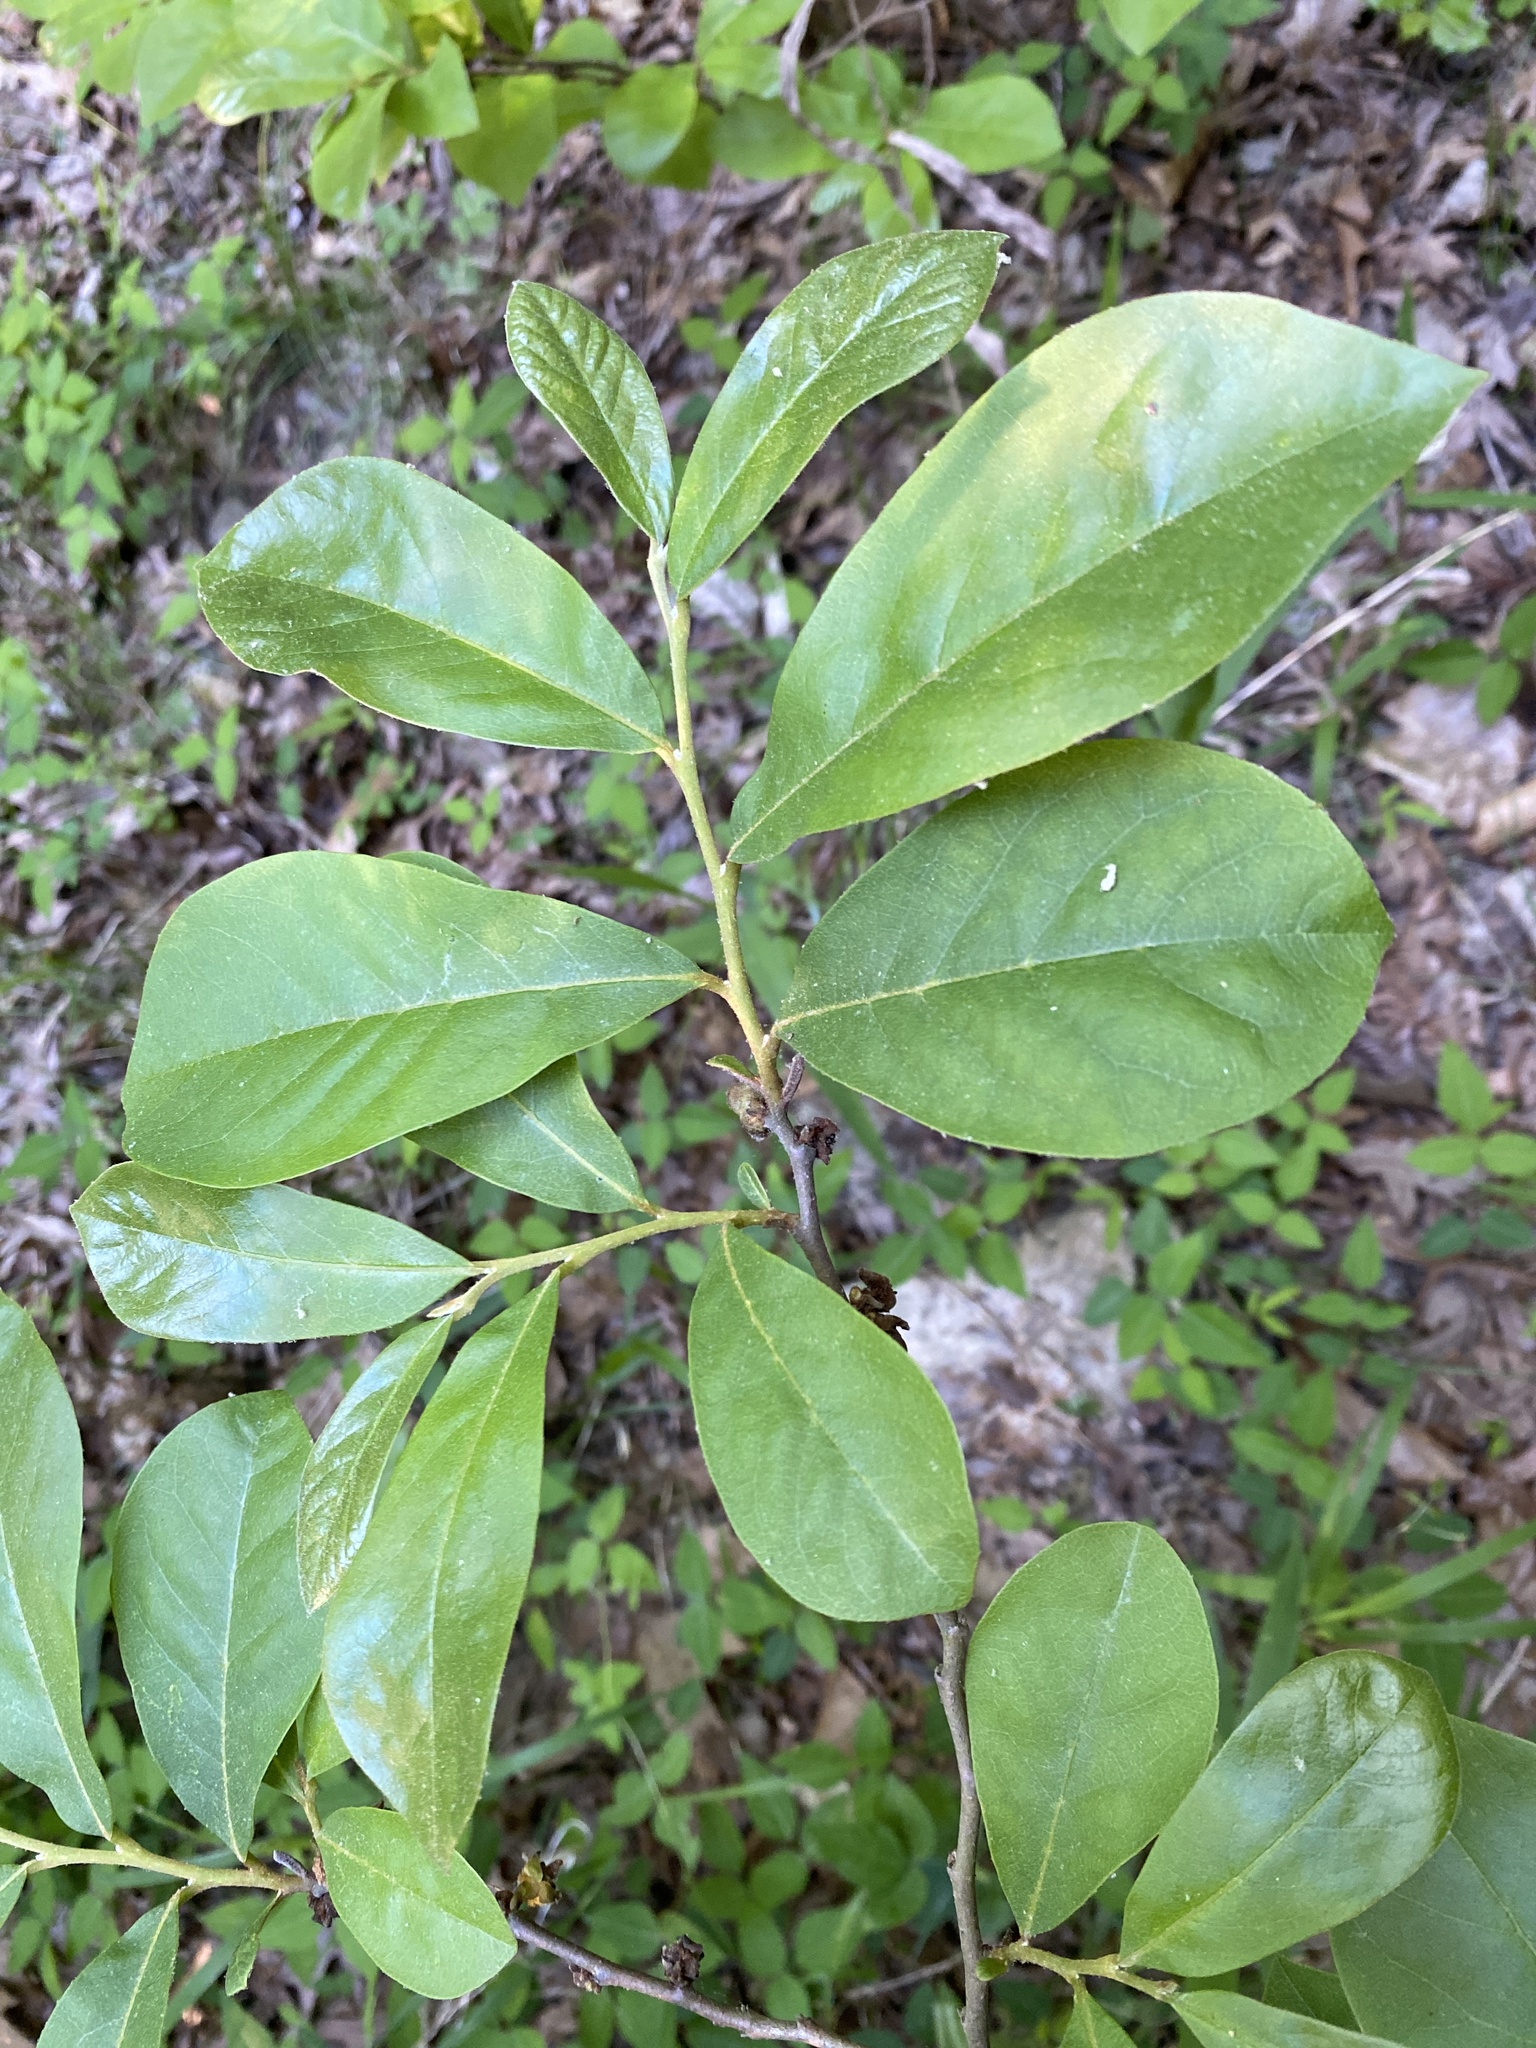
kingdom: Plantae
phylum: Tracheophyta
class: Magnoliopsida
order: Magnoliales
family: Annonaceae
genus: Asimina
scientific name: Asimina parviflora
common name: Dwarf pawpaw
